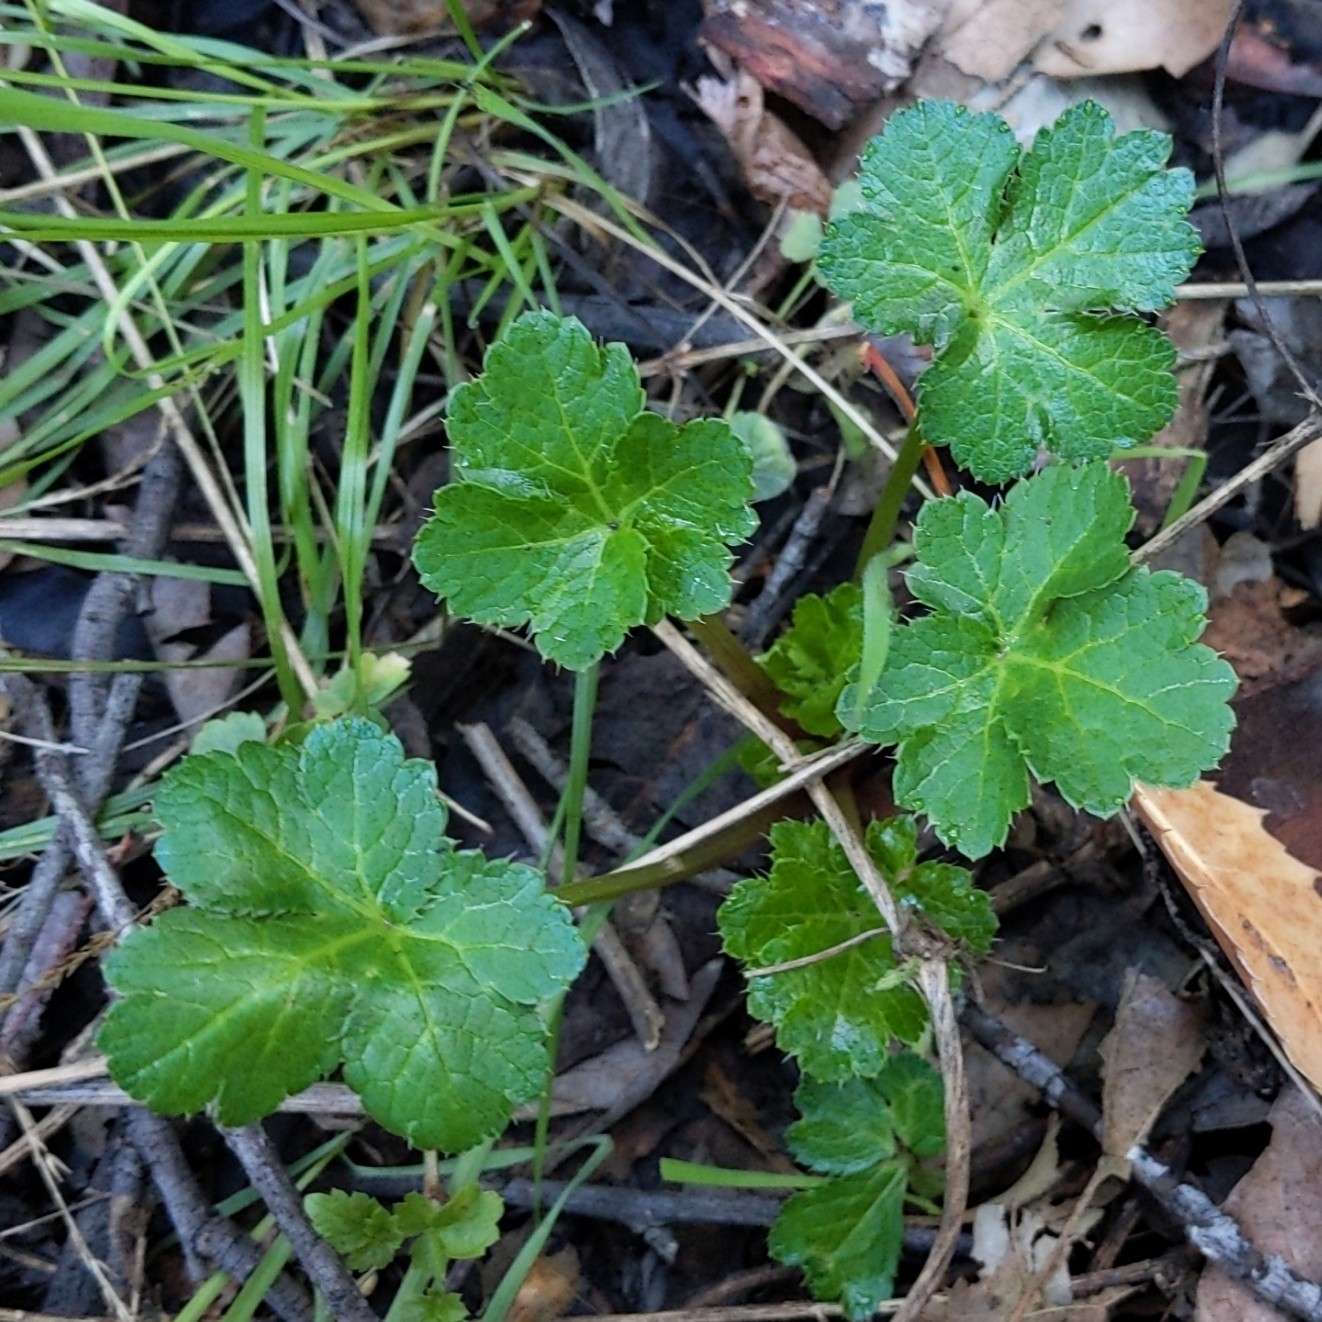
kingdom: Plantae
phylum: Tracheophyta
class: Magnoliopsida
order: Apiales
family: Apiaceae
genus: Sanicula
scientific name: Sanicula crassicaulis
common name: Western snakeroot
